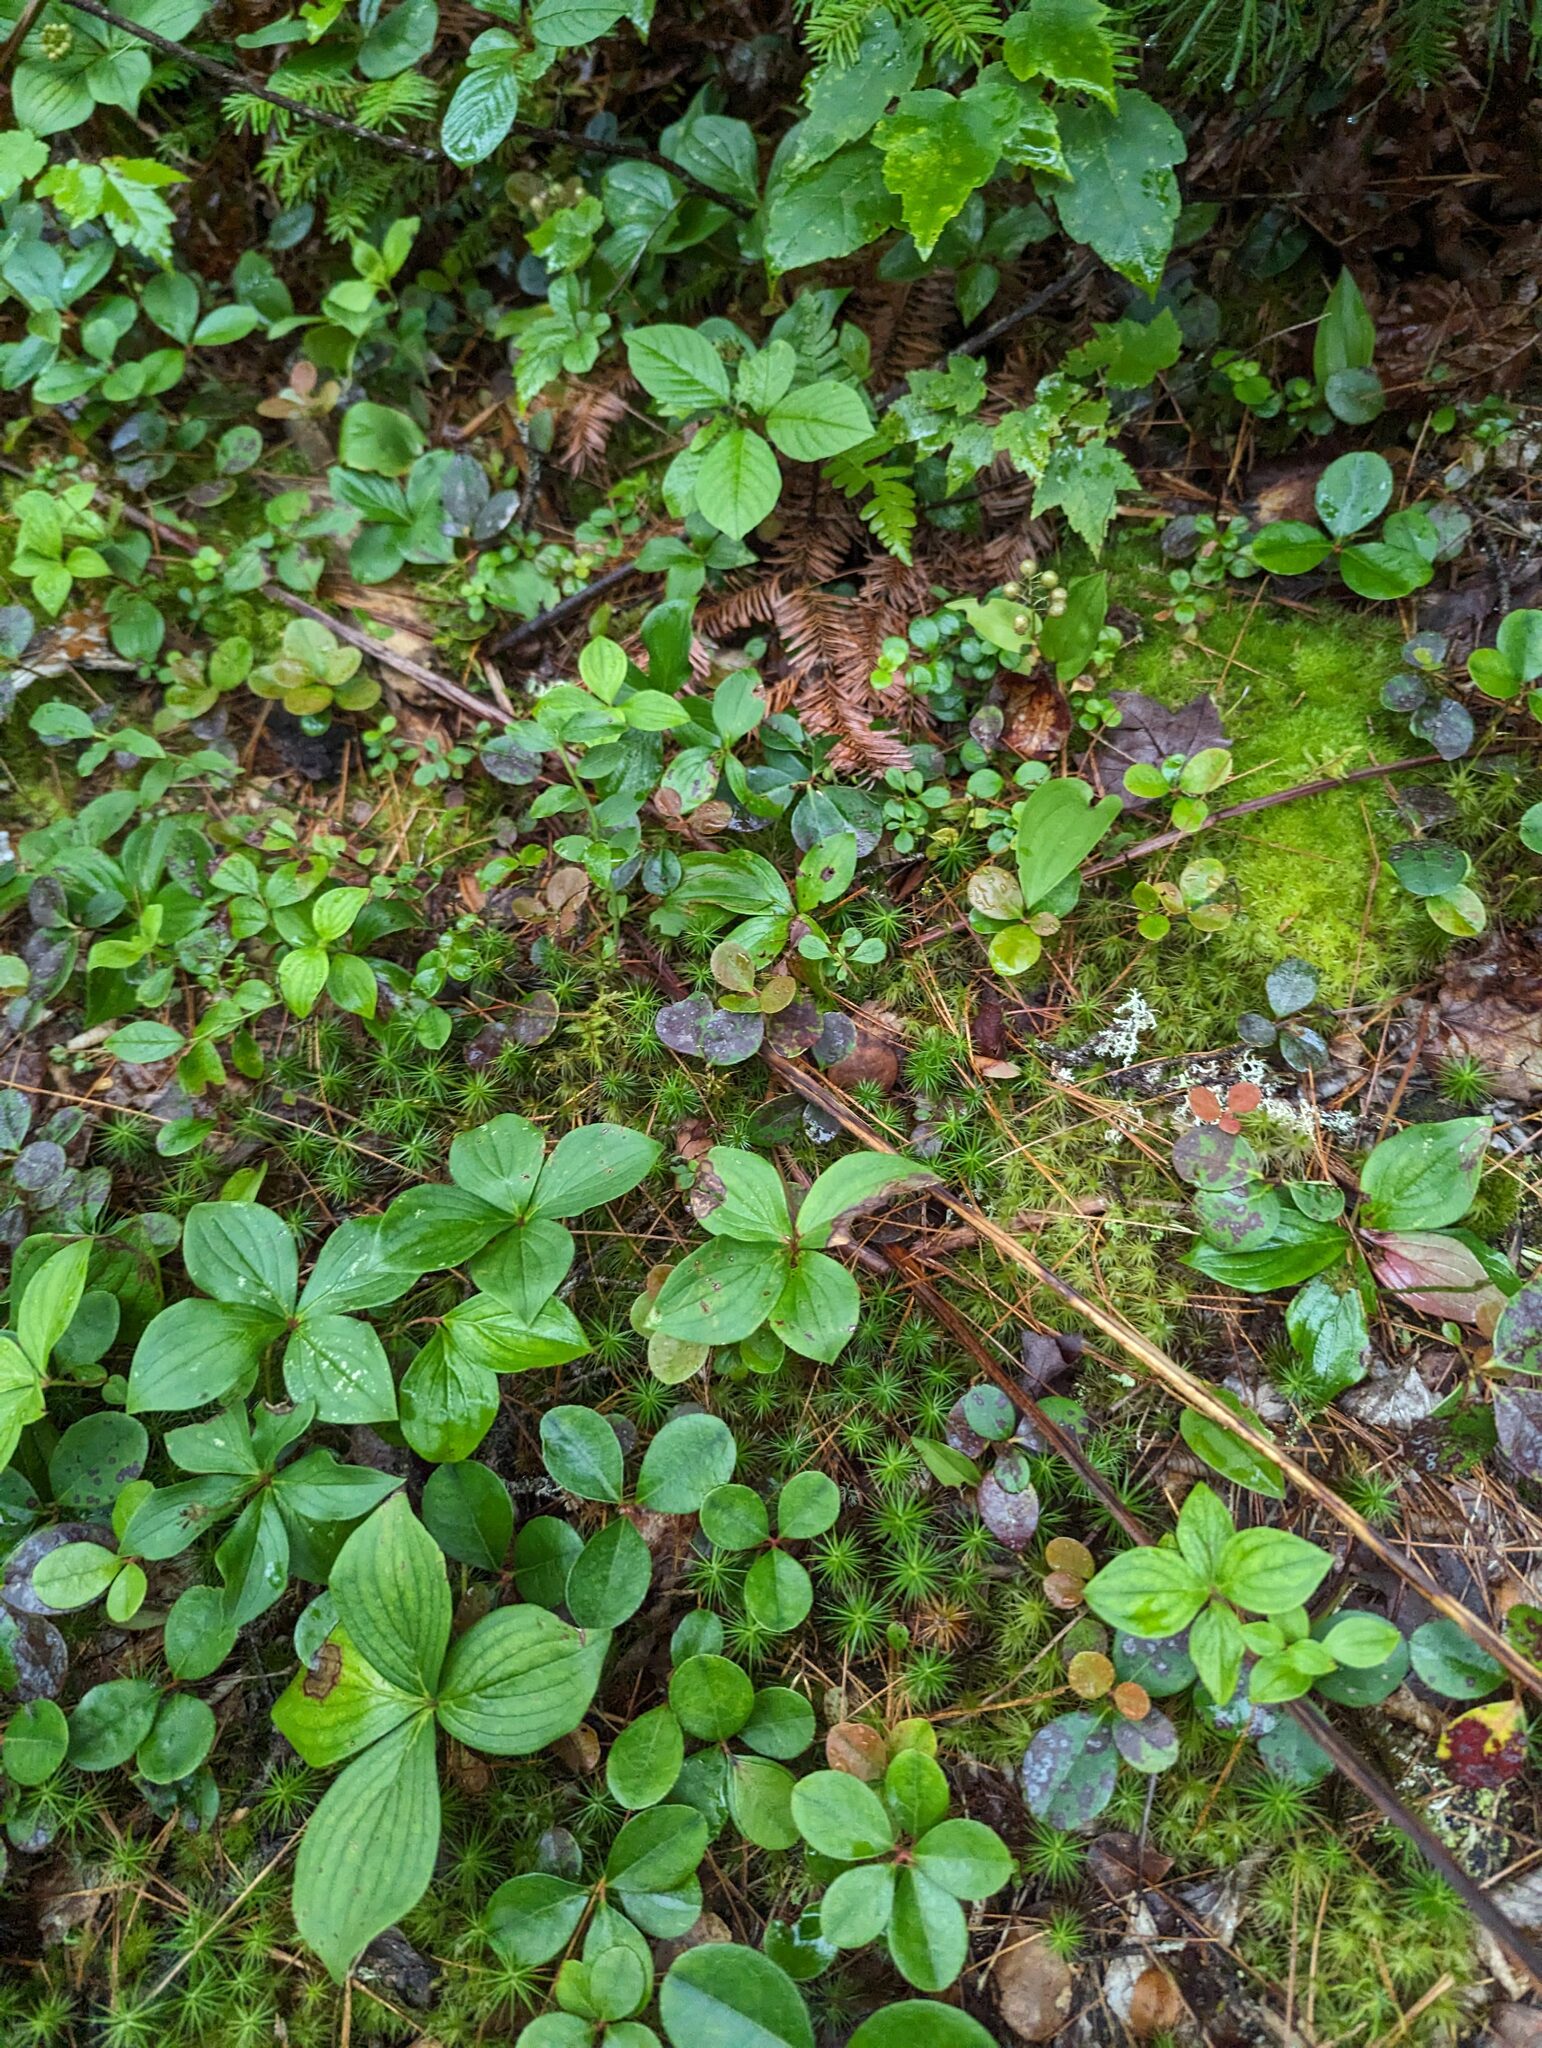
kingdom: Plantae
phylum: Tracheophyta
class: Magnoliopsida
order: Cornales
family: Cornaceae
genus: Cornus
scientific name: Cornus canadensis
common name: Creeping dogwood
